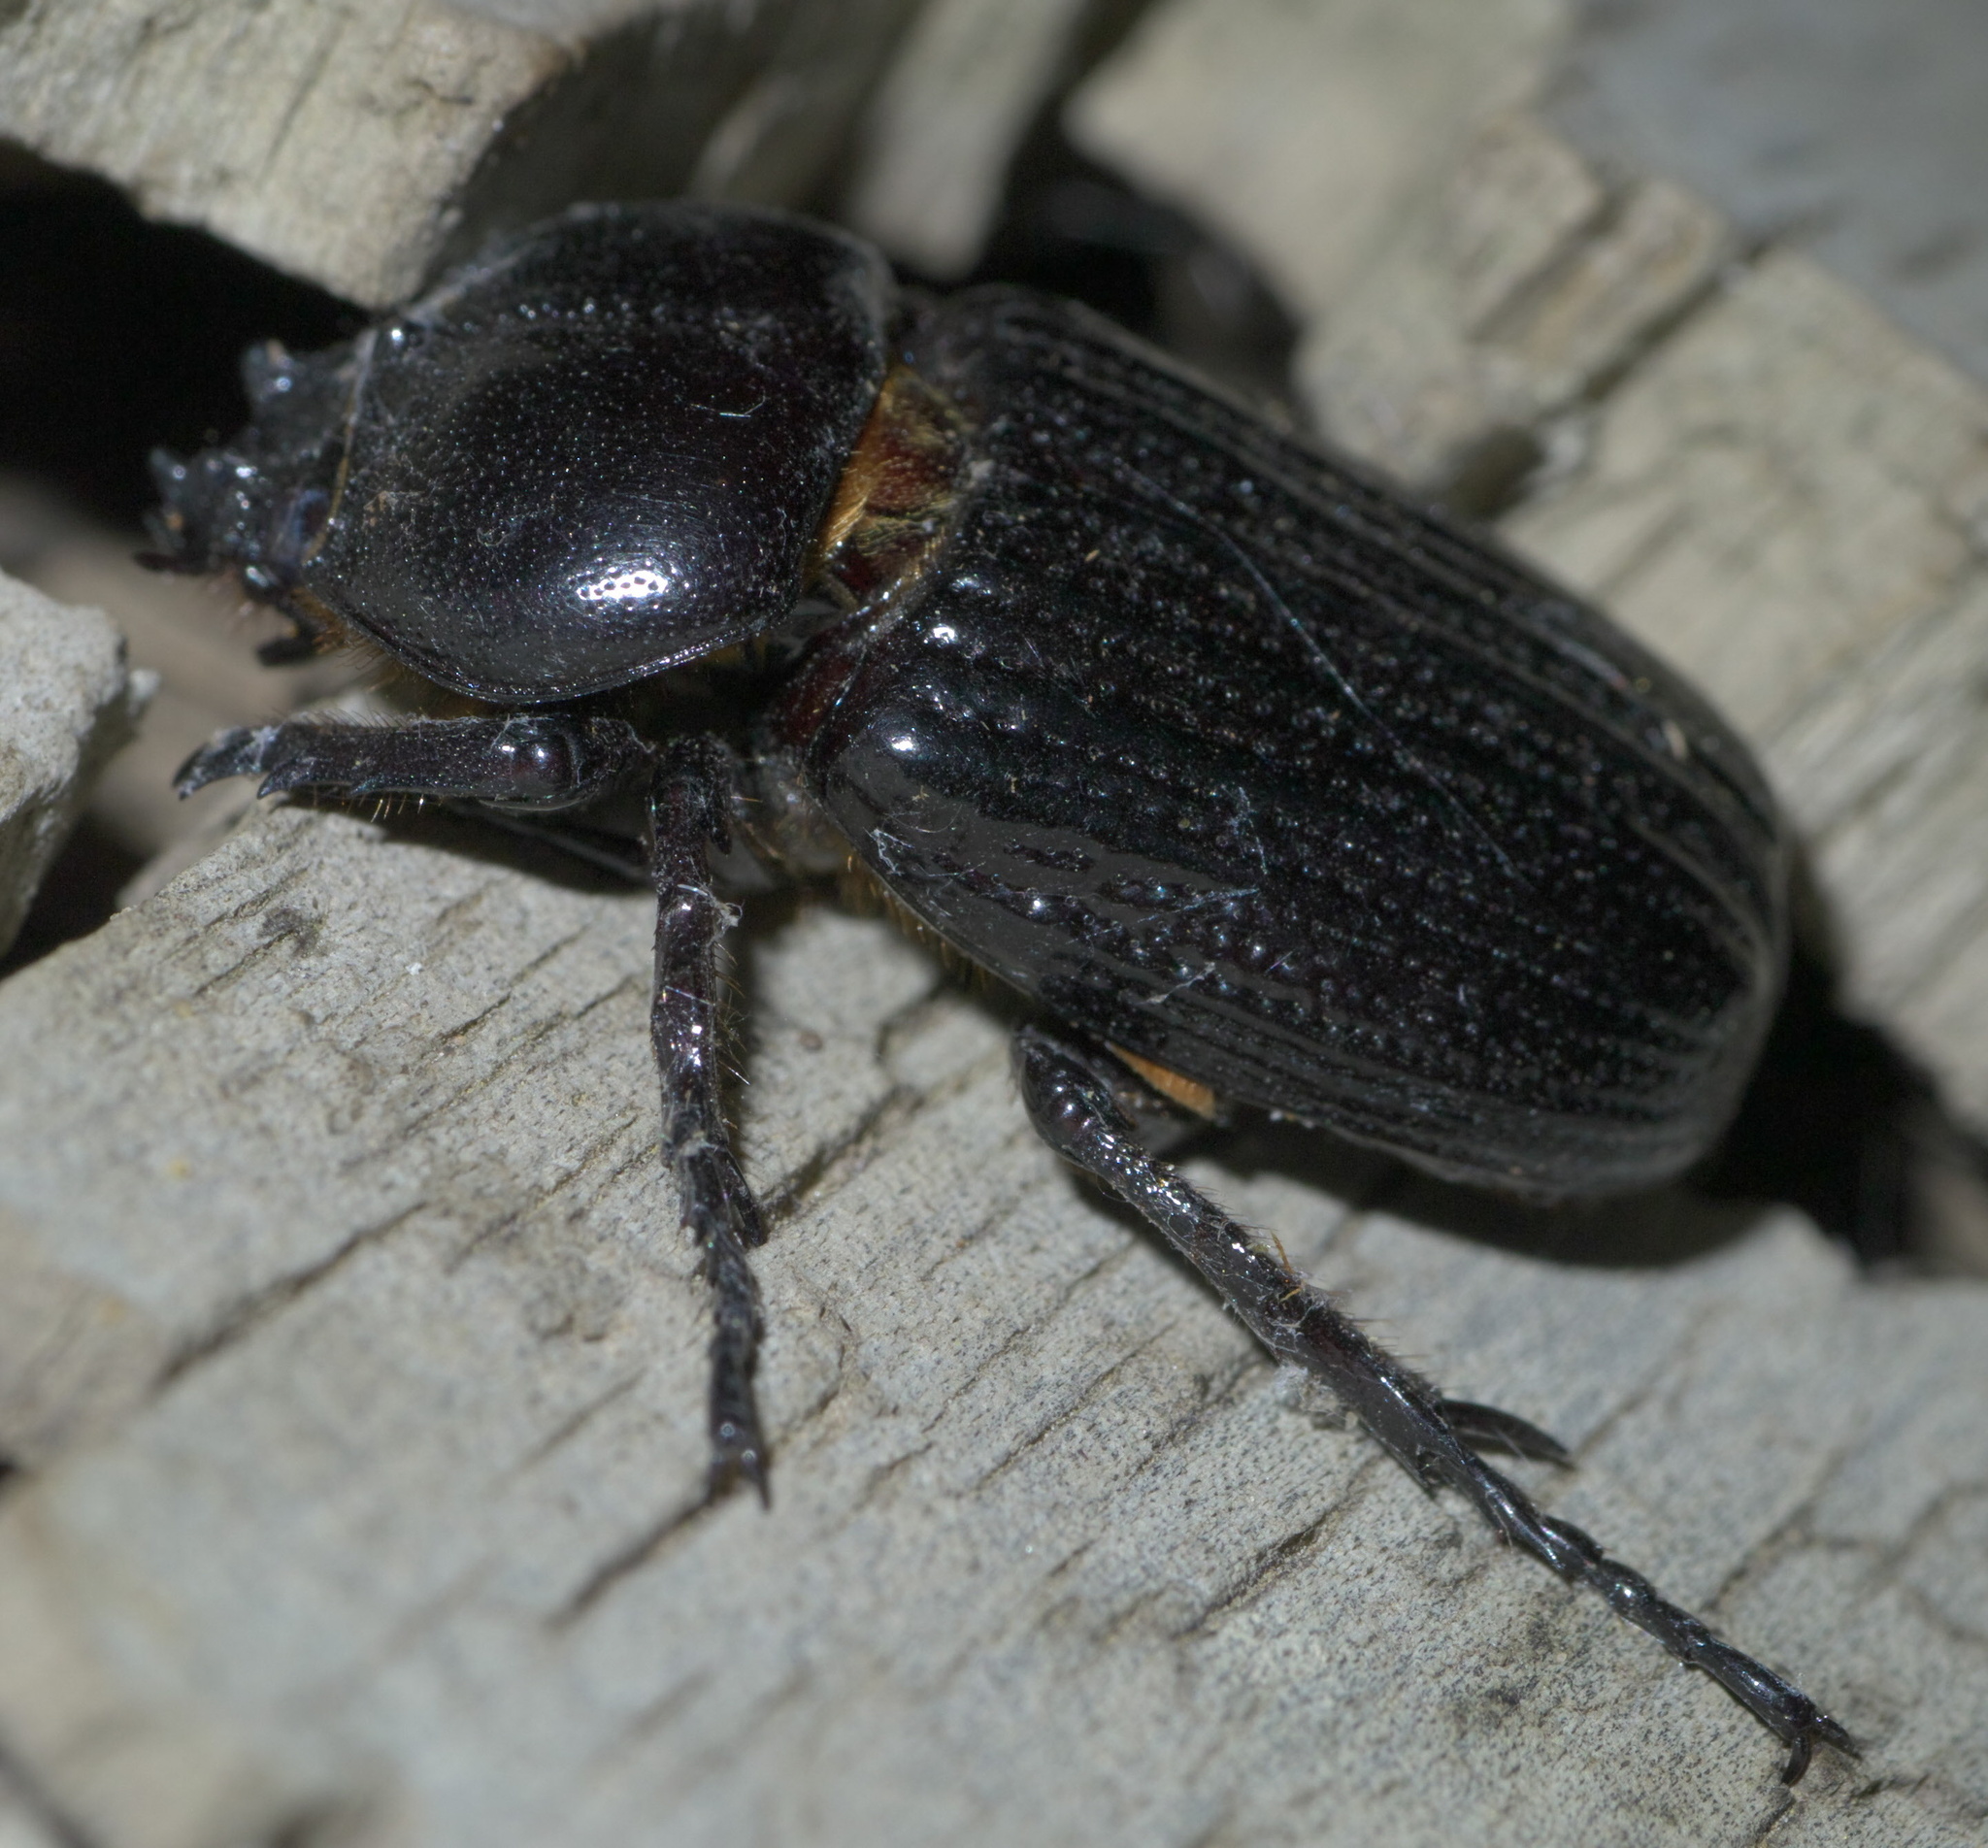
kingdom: Animalia
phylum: Arthropoda
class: Insecta
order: Coleoptera
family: Scarabaeidae
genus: Phileurus
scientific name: Phileurus valgus
